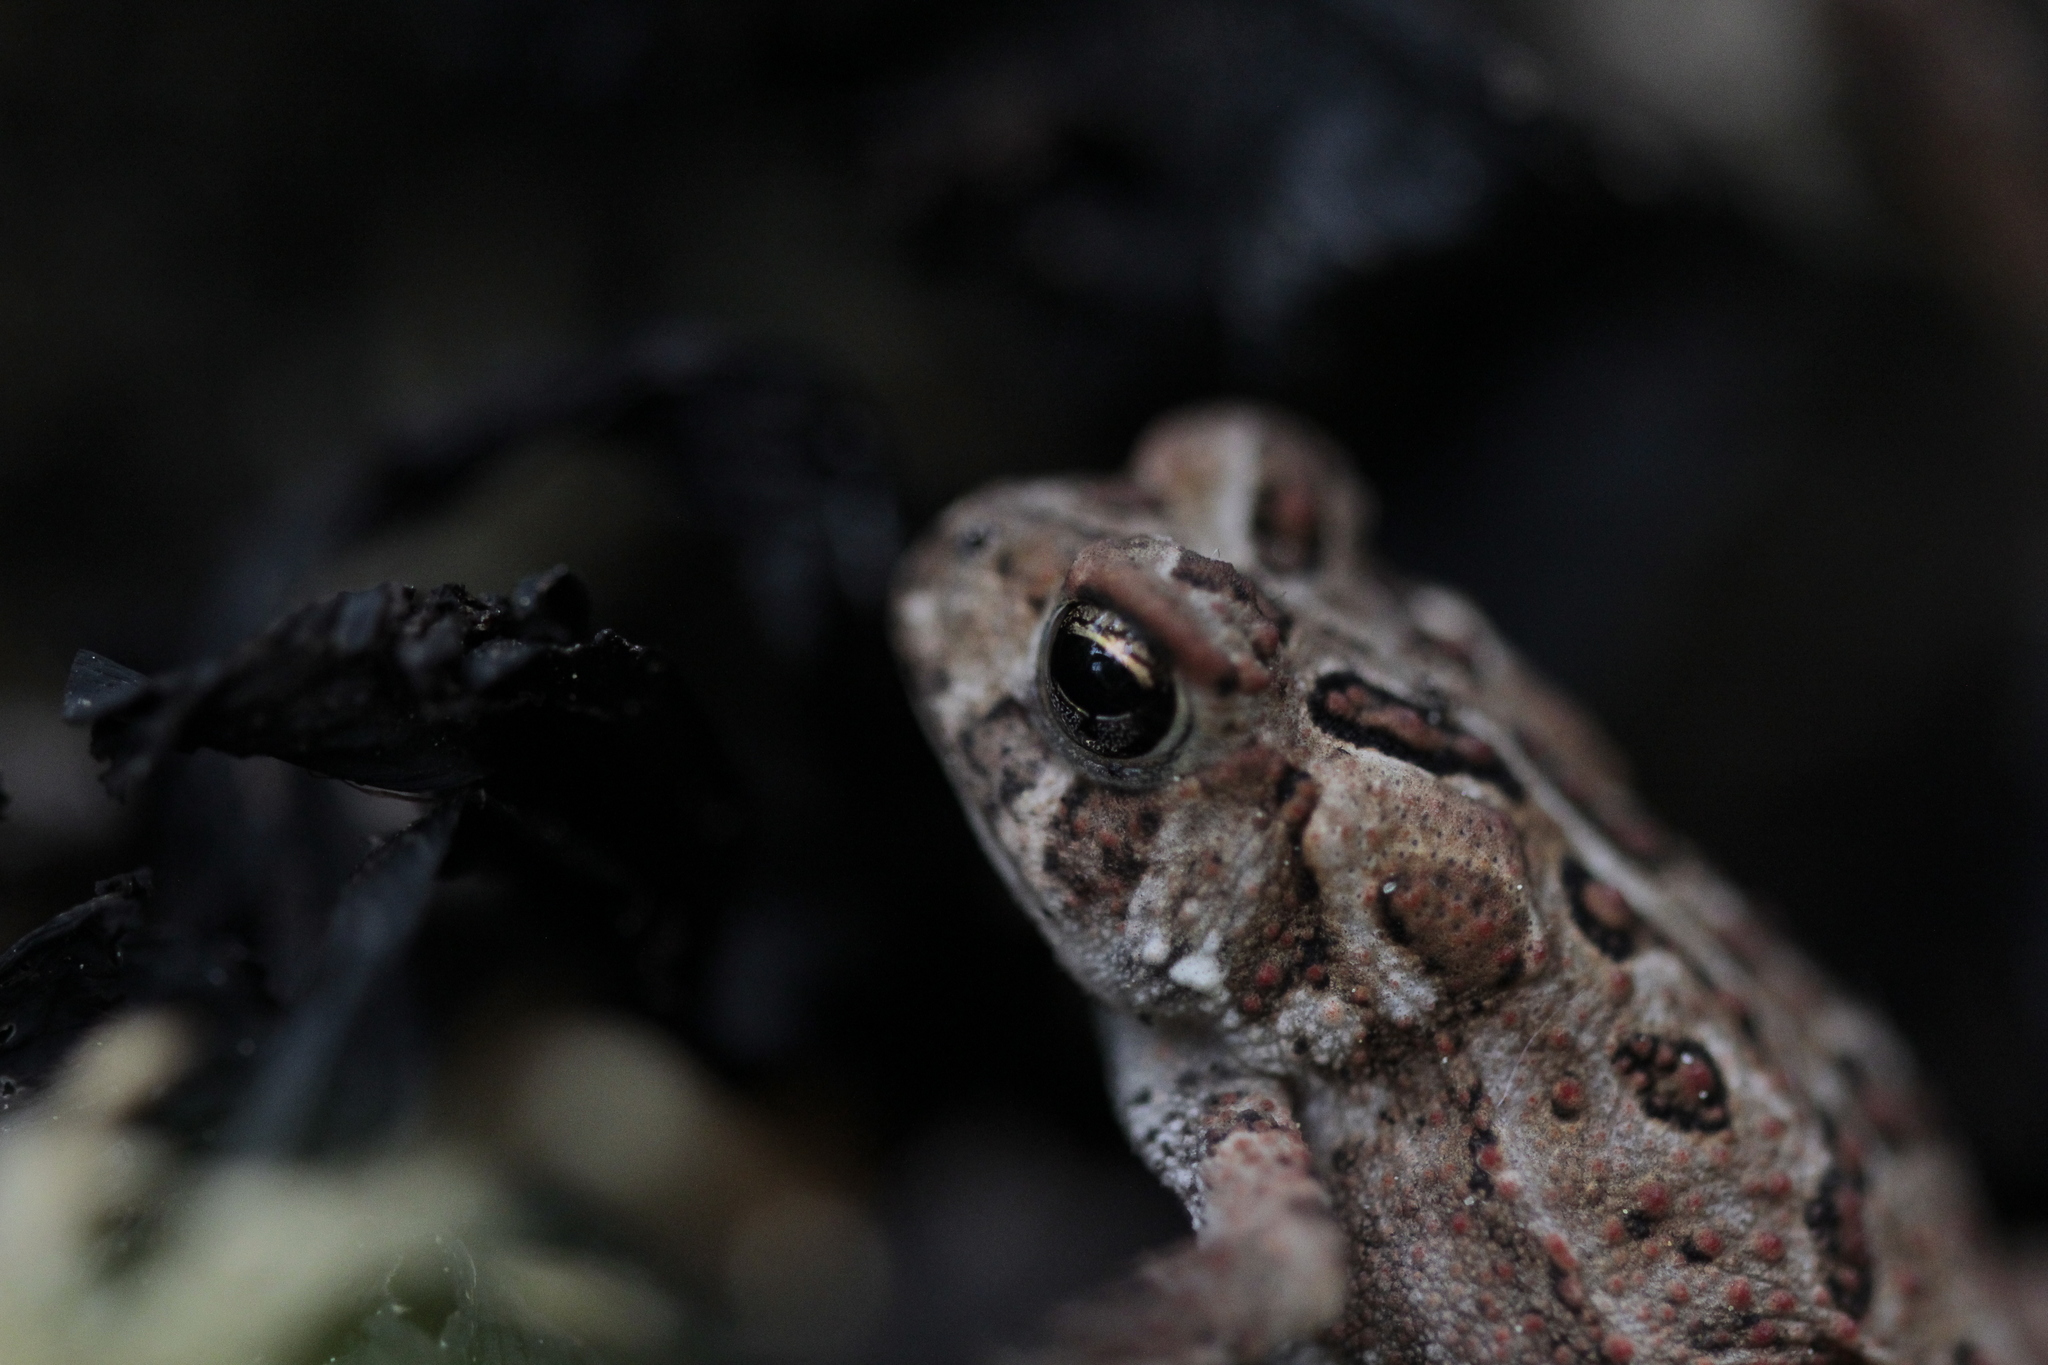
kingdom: Animalia
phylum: Chordata
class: Amphibia
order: Anura
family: Bufonidae
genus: Anaxyrus
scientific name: Anaxyrus americanus
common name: American toad
